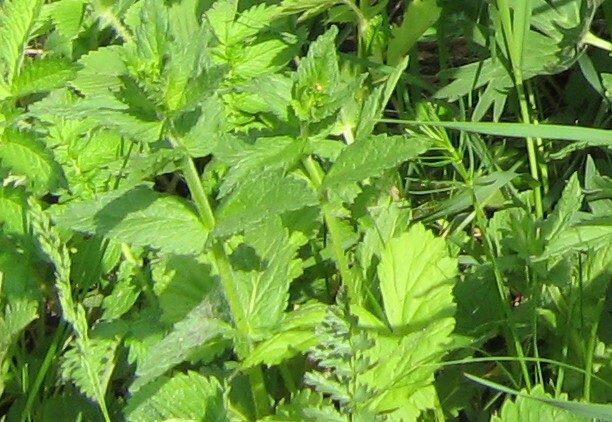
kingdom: Plantae
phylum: Tracheophyta
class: Magnoliopsida
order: Lamiales
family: Plantaginaceae
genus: Veronica
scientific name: Veronica teucrium
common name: Large speedwell
